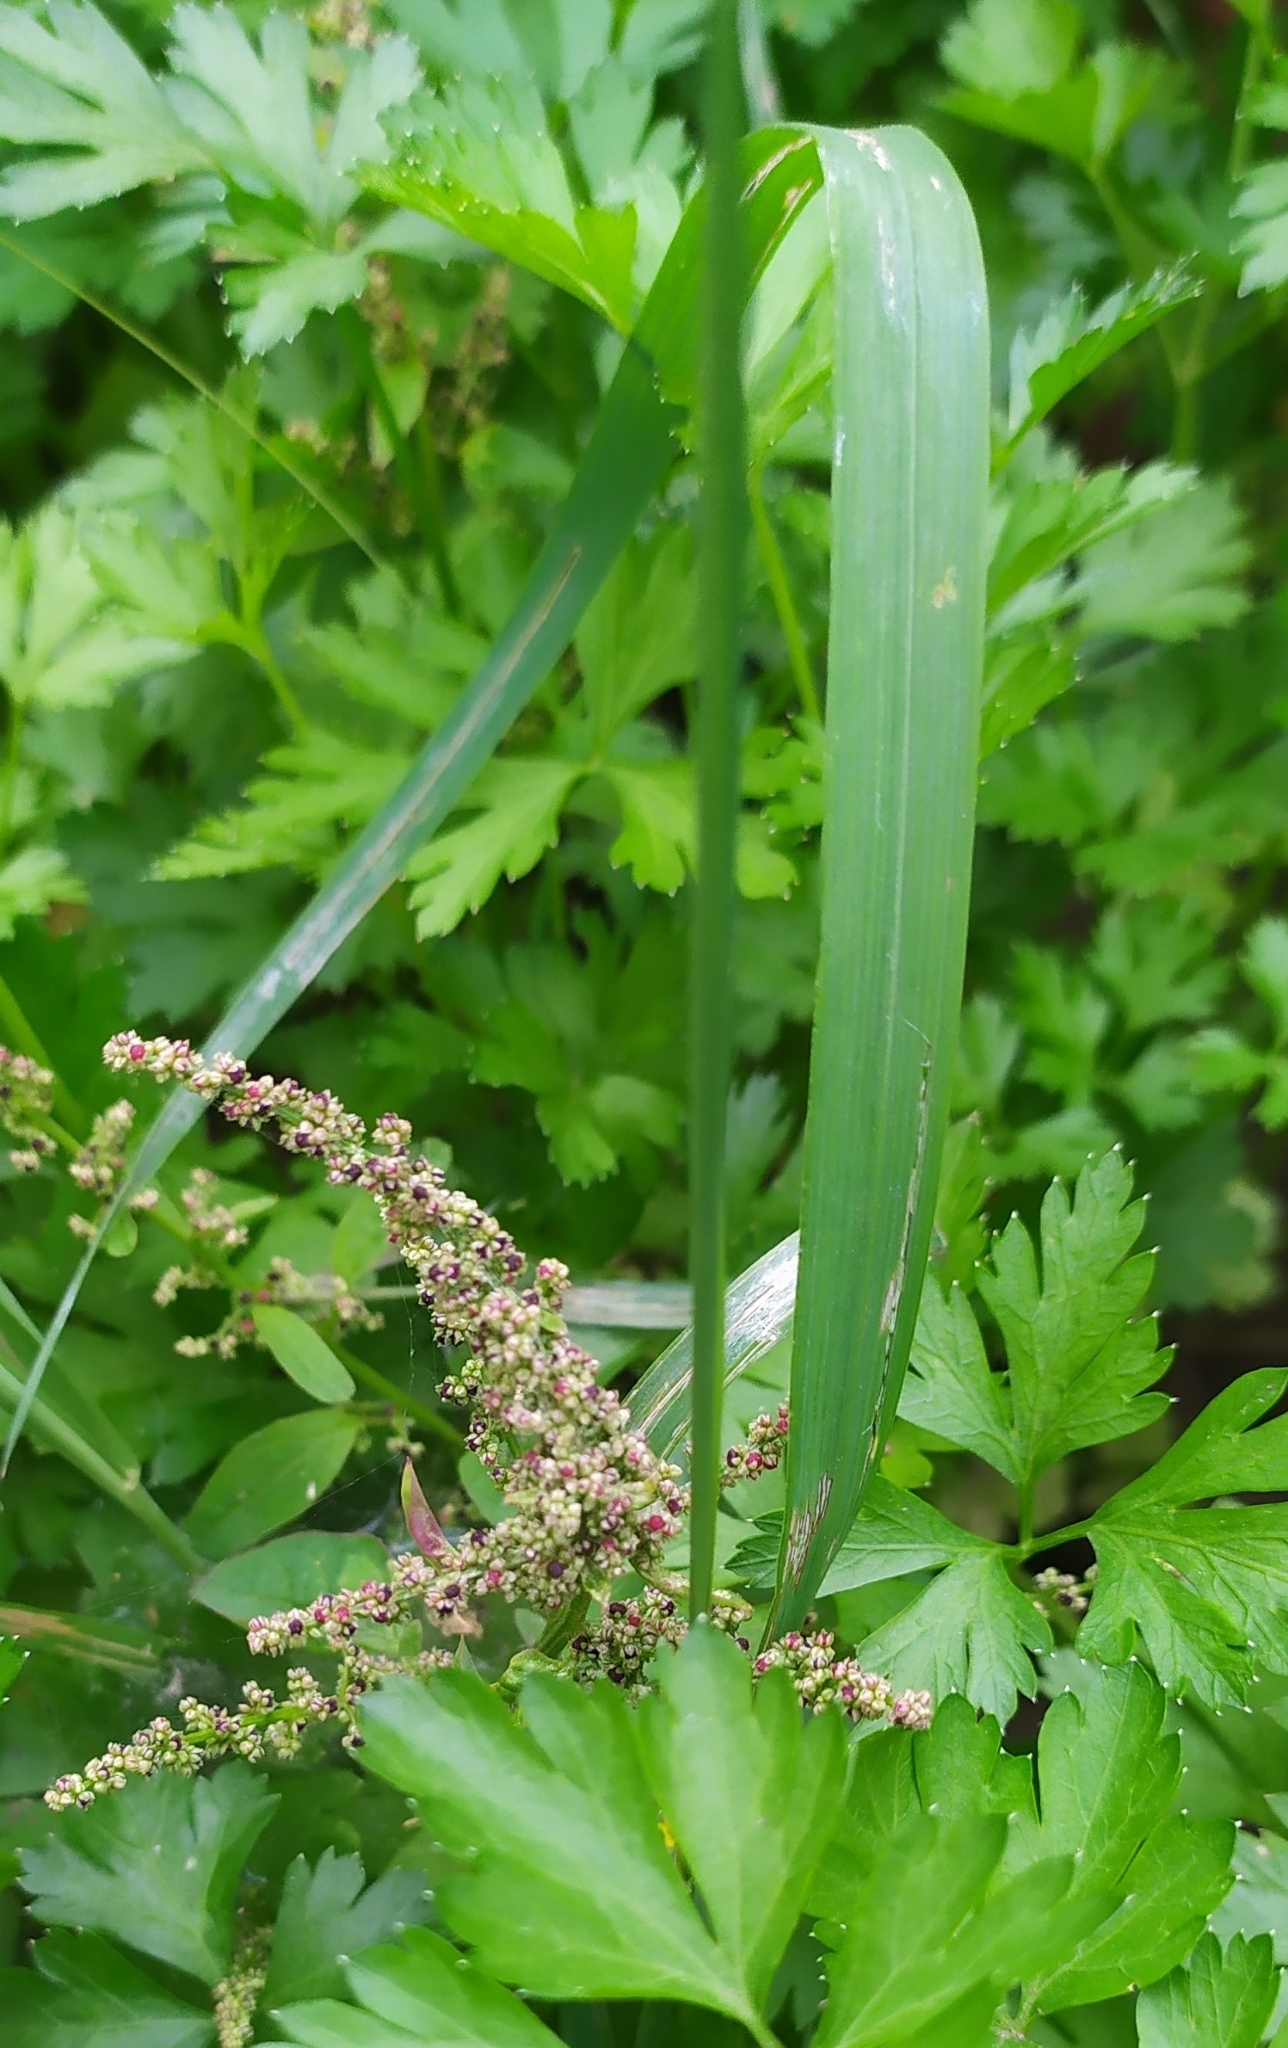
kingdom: Plantae
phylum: Tracheophyta
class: Magnoliopsida
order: Caryophyllales
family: Amaranthaceae
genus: Lipandra
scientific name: Lipandra polysperma
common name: Many-seed goosefoot
